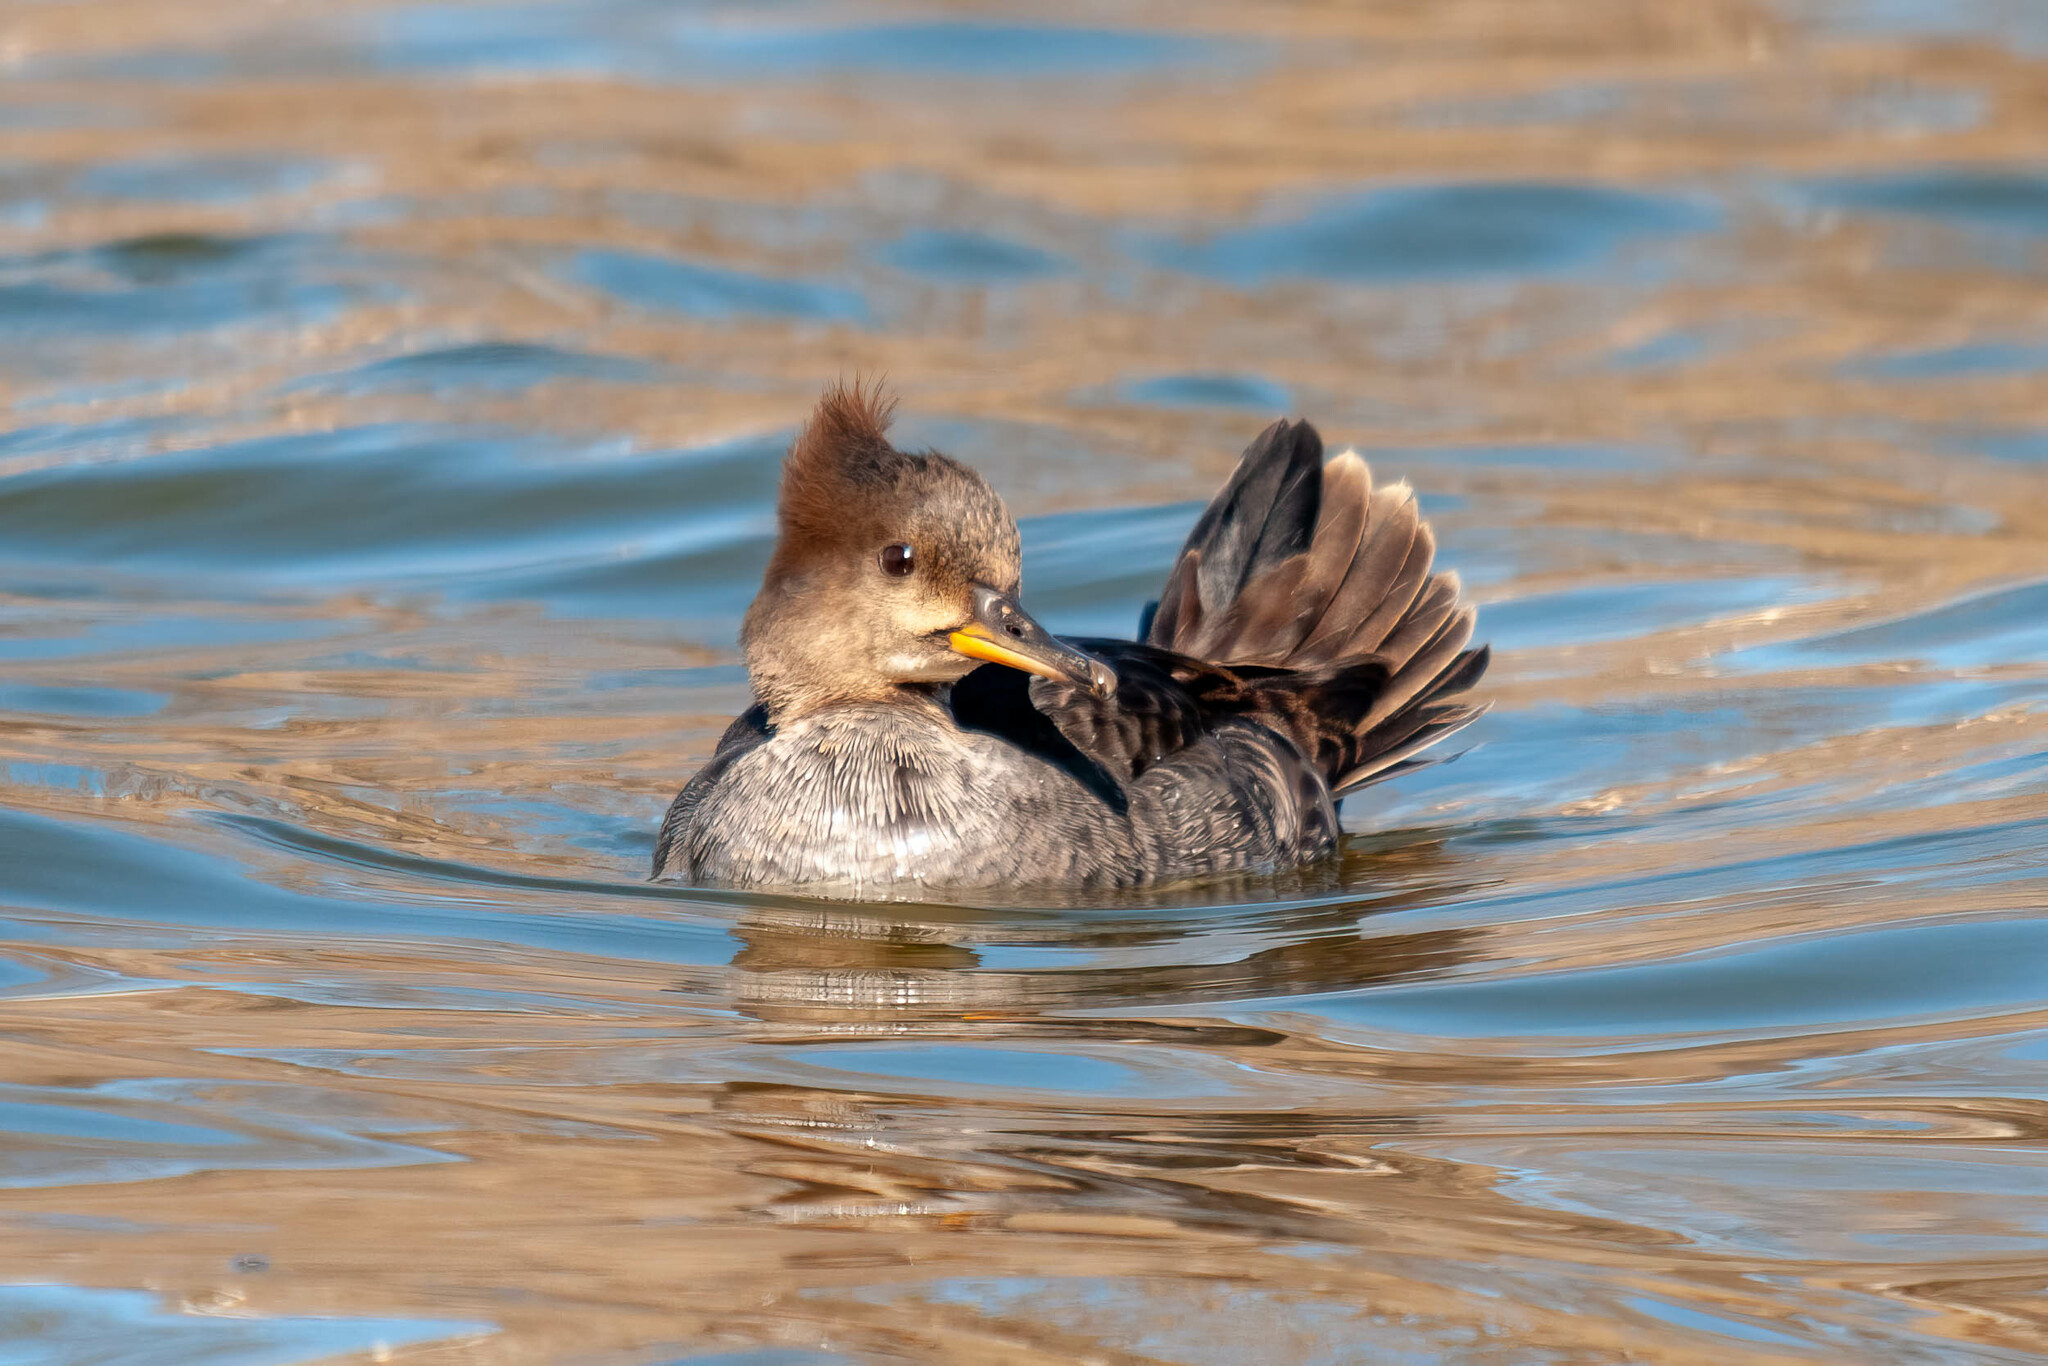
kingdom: Animalia
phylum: Chordata
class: Aves
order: Anseriformes
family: Anatidae
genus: Lophodytes
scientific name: Lophodytes cucullatus
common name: Hooded merganser
